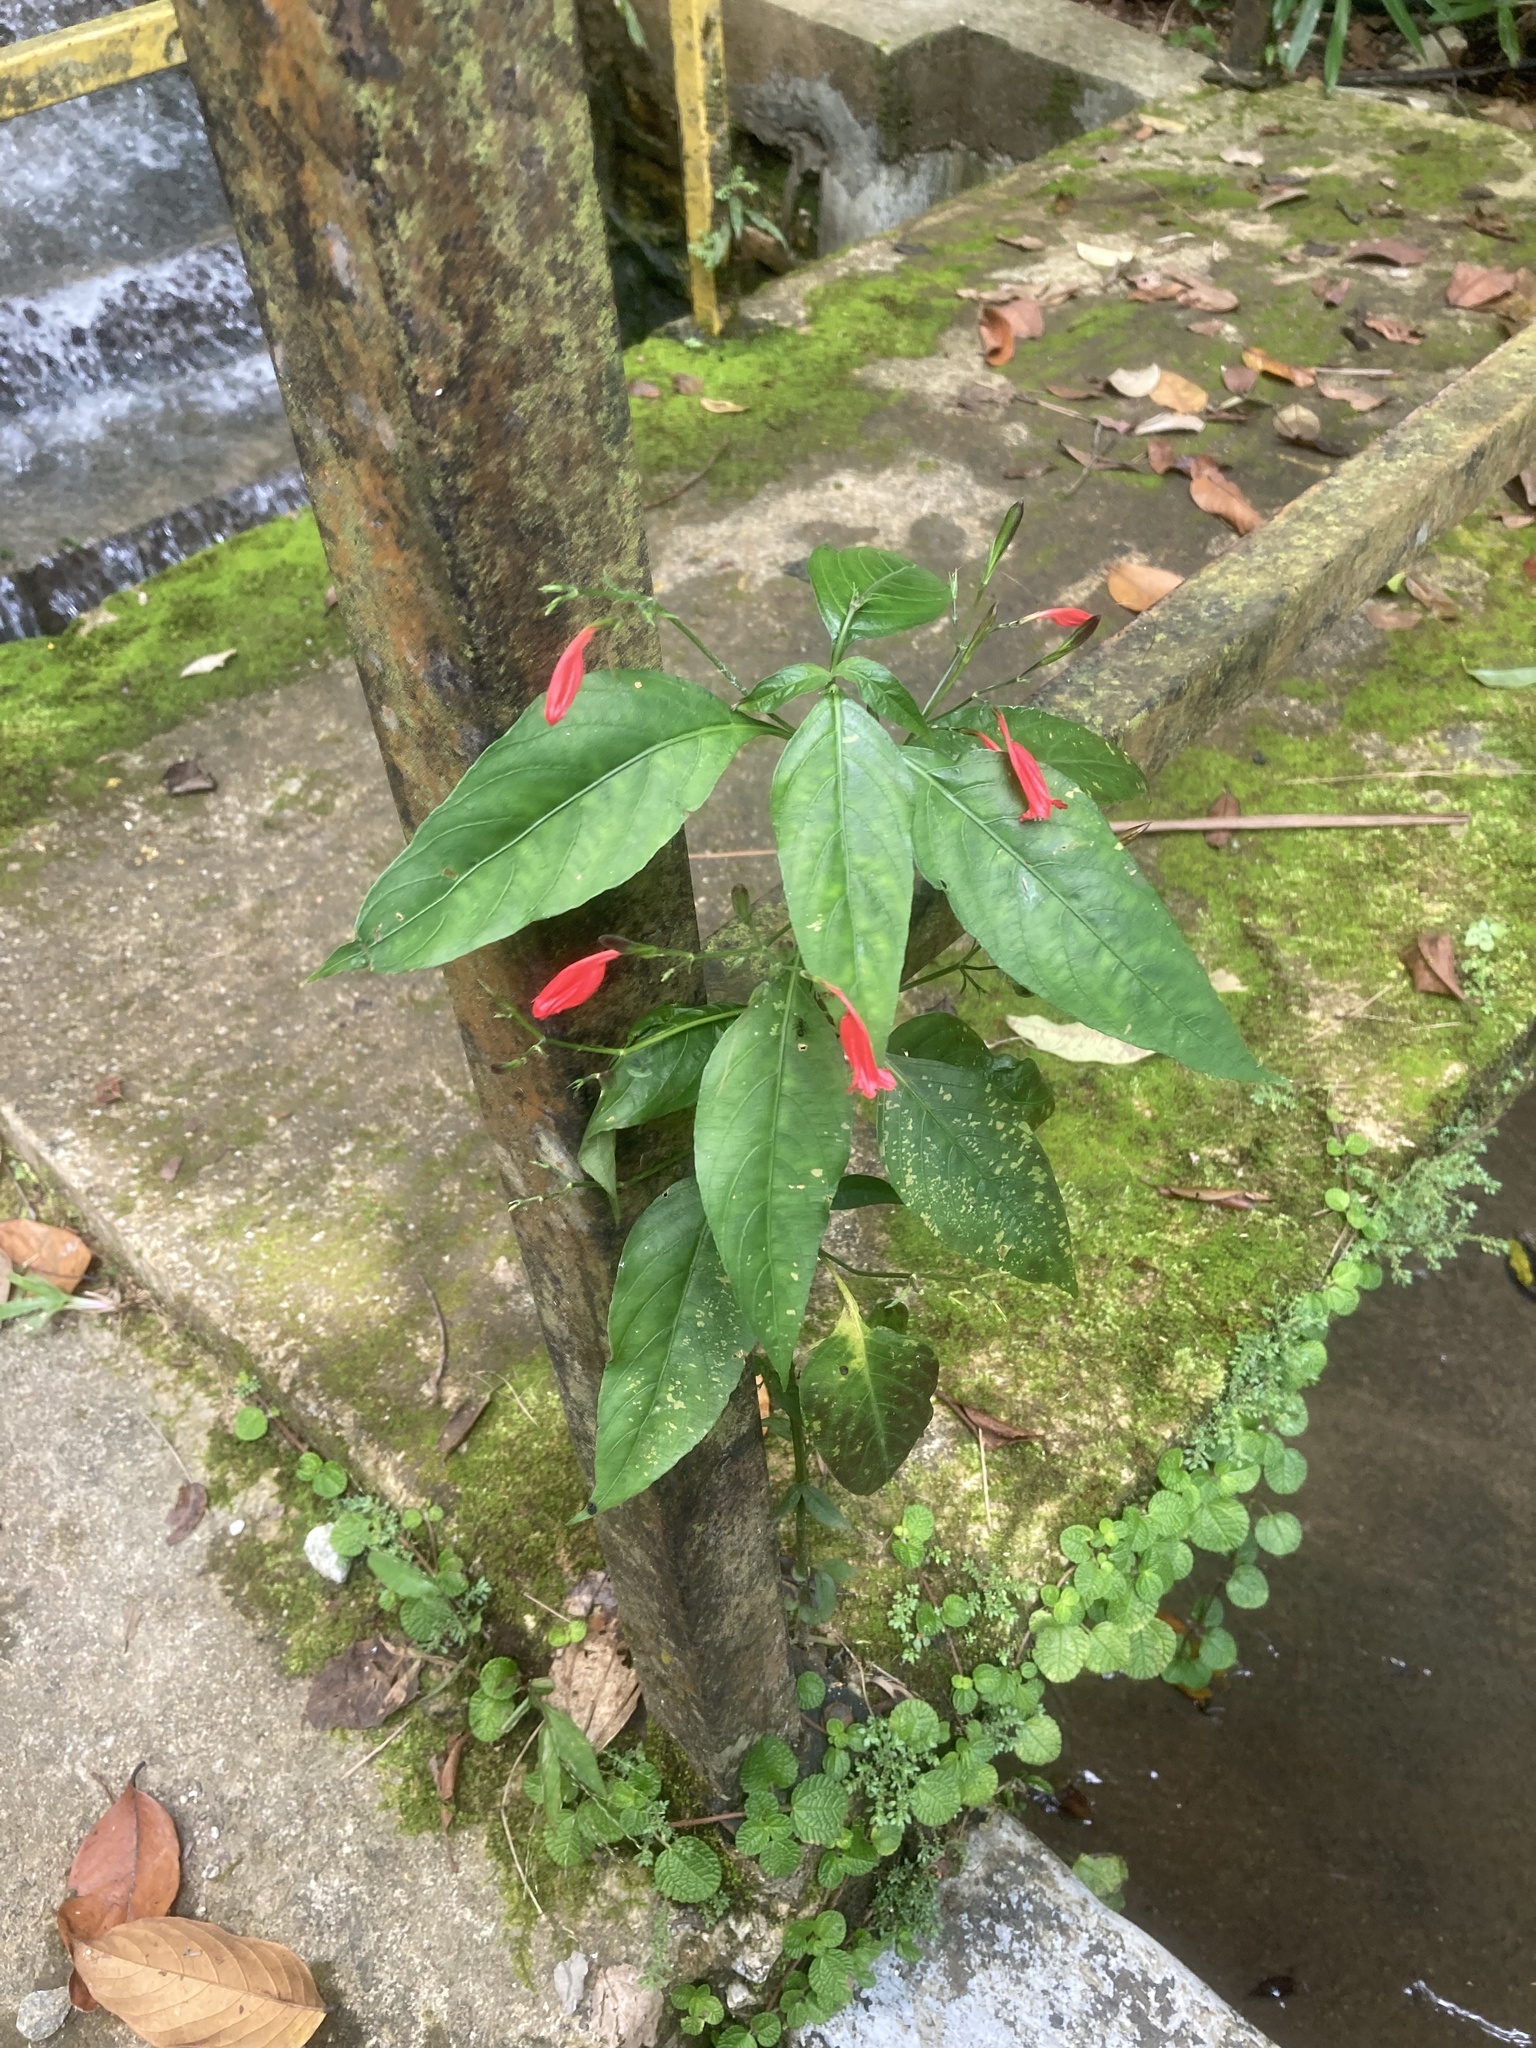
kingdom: Plantae
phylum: Tracheophyta
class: Magnoliopsida
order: Lamiales
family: Acanthaceae
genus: Ruellia
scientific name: Ruellia brevifolia
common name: Tropical wild petunia
